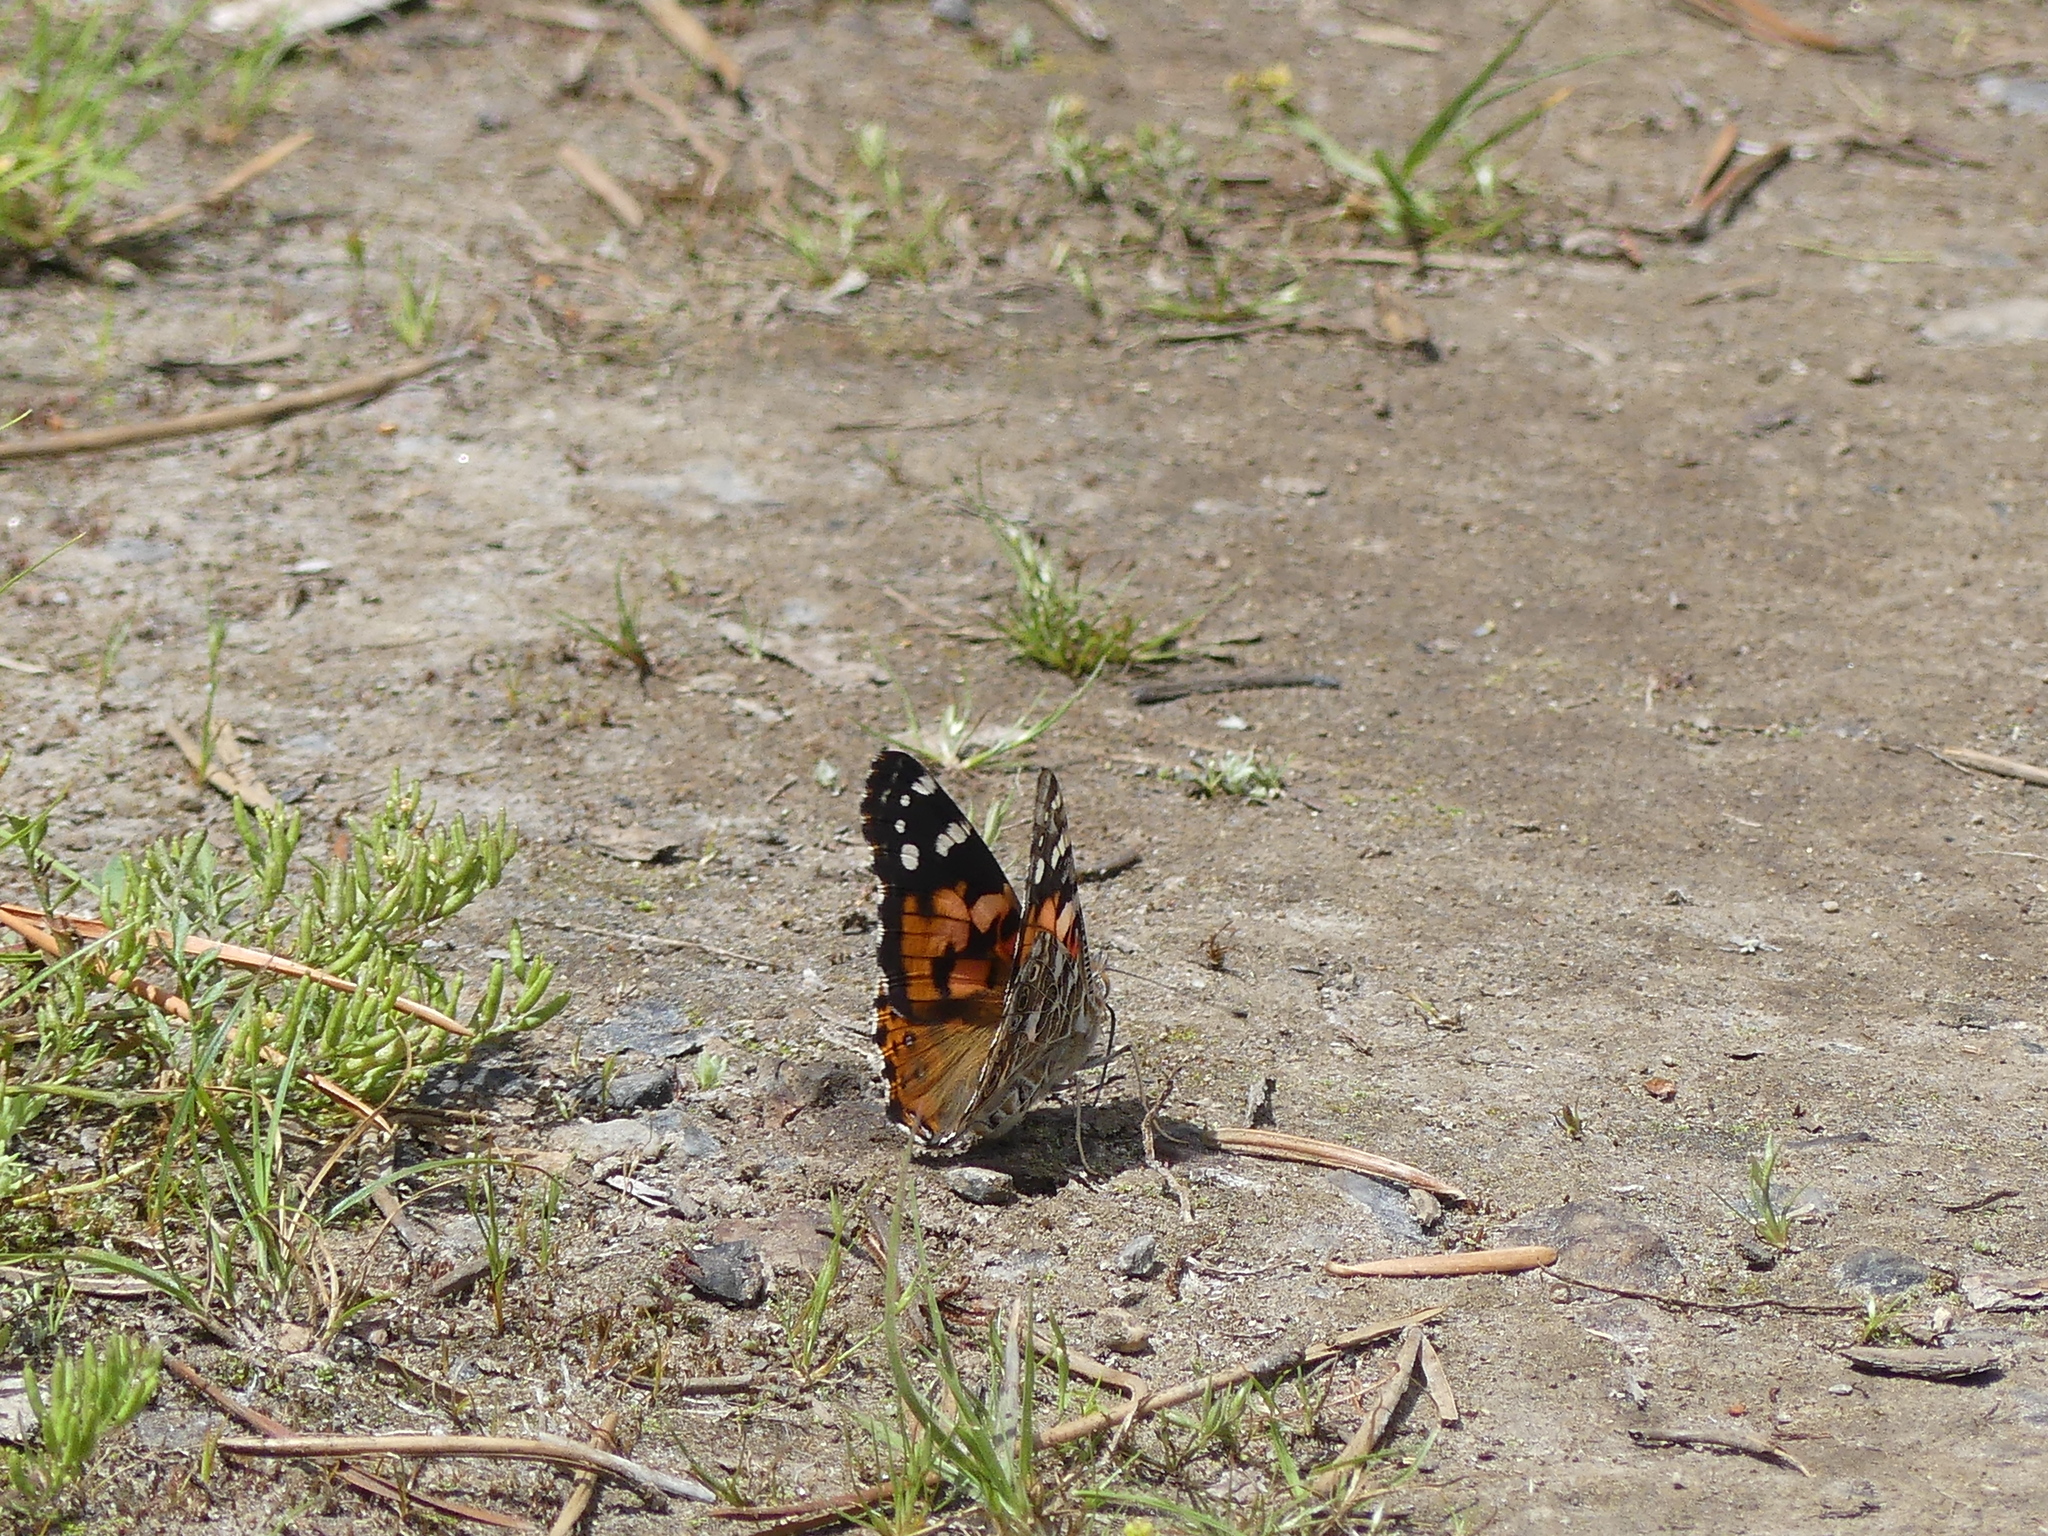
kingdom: Animalia
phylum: Arthropoda
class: Insecta
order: Lepidoptera
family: Nymphalidae
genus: Vanessa
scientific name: Vanessa cardui
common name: Painted lady
